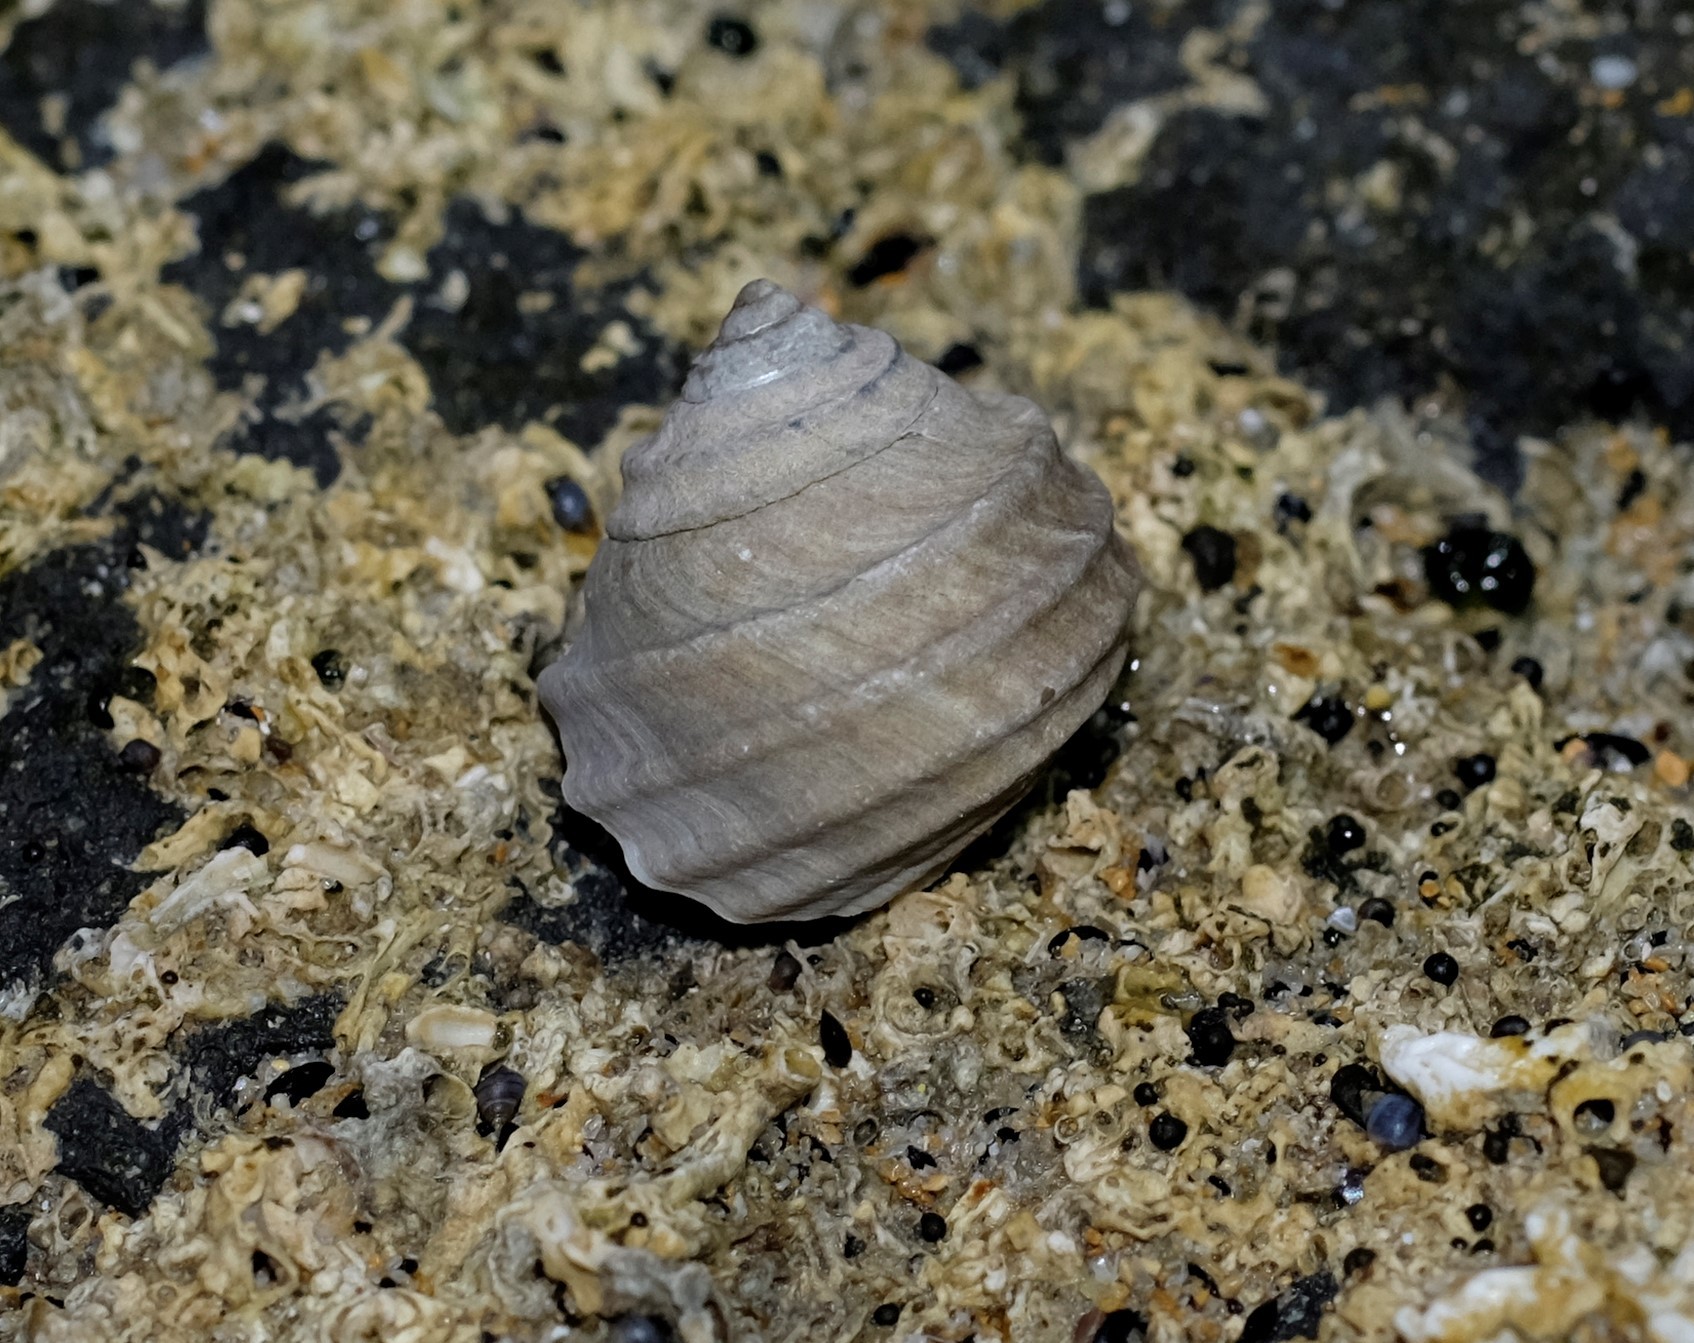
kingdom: Animalia
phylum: Mollusca
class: Gastropoda
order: Trochida
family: Trochidae
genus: Austrocochlea
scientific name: Austrocochlea constricta
